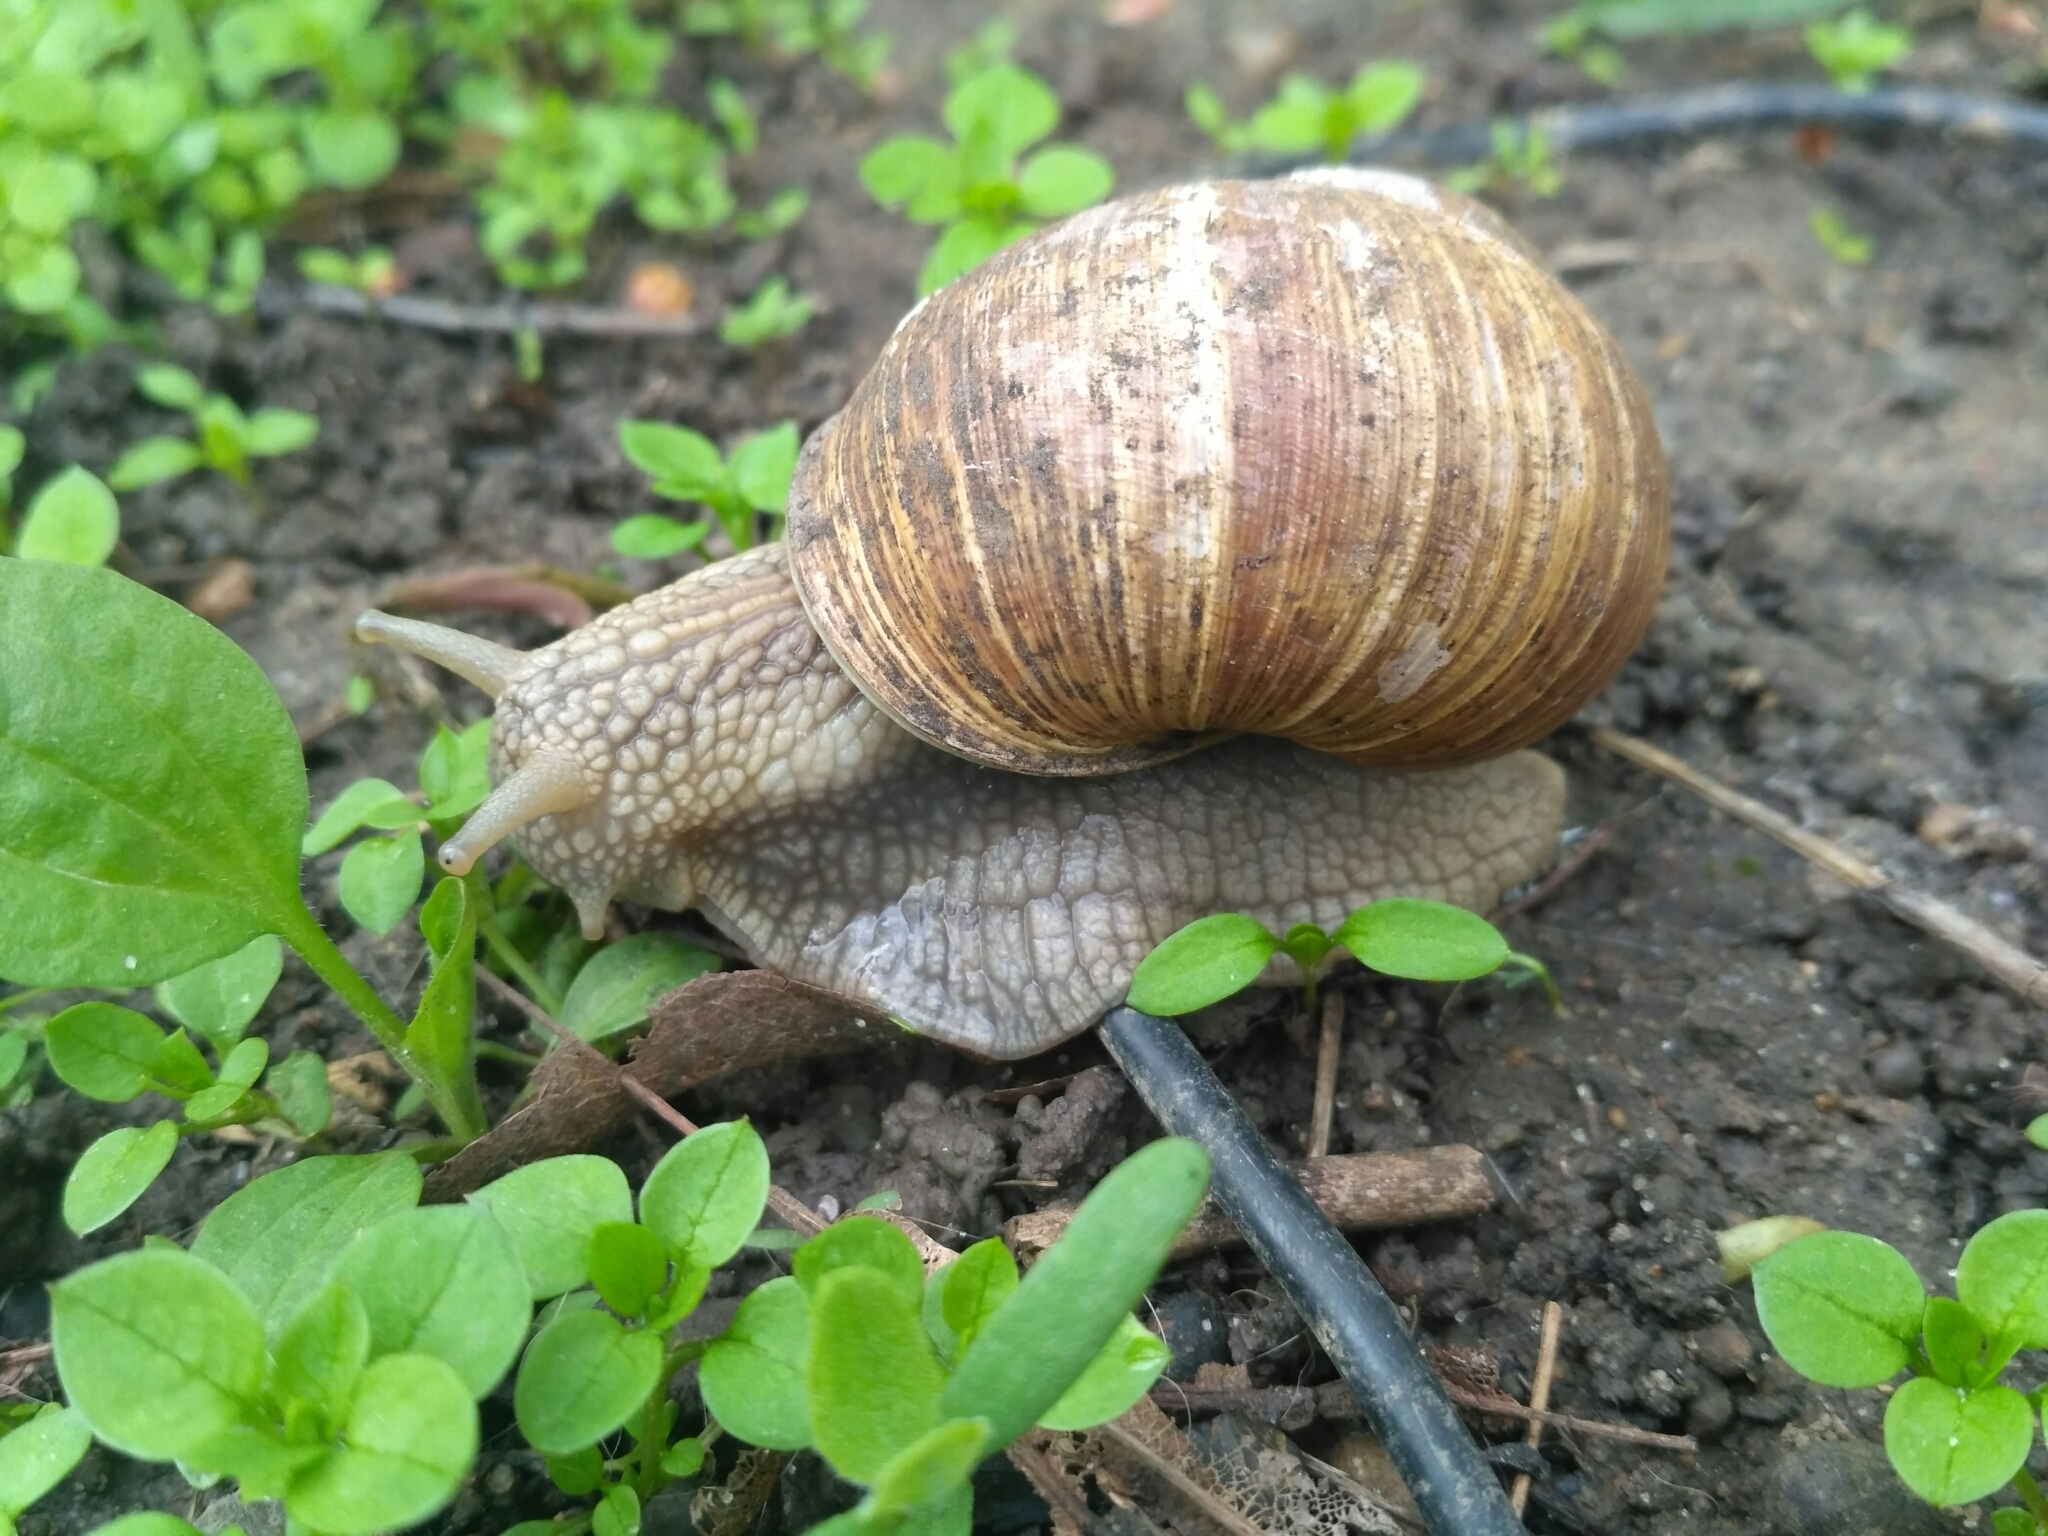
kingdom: Animalia
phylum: Mollusca
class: Gastropoda
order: Stylommatophora
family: Helicidae
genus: Helix
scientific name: Helix pomatia
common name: Roman snail
